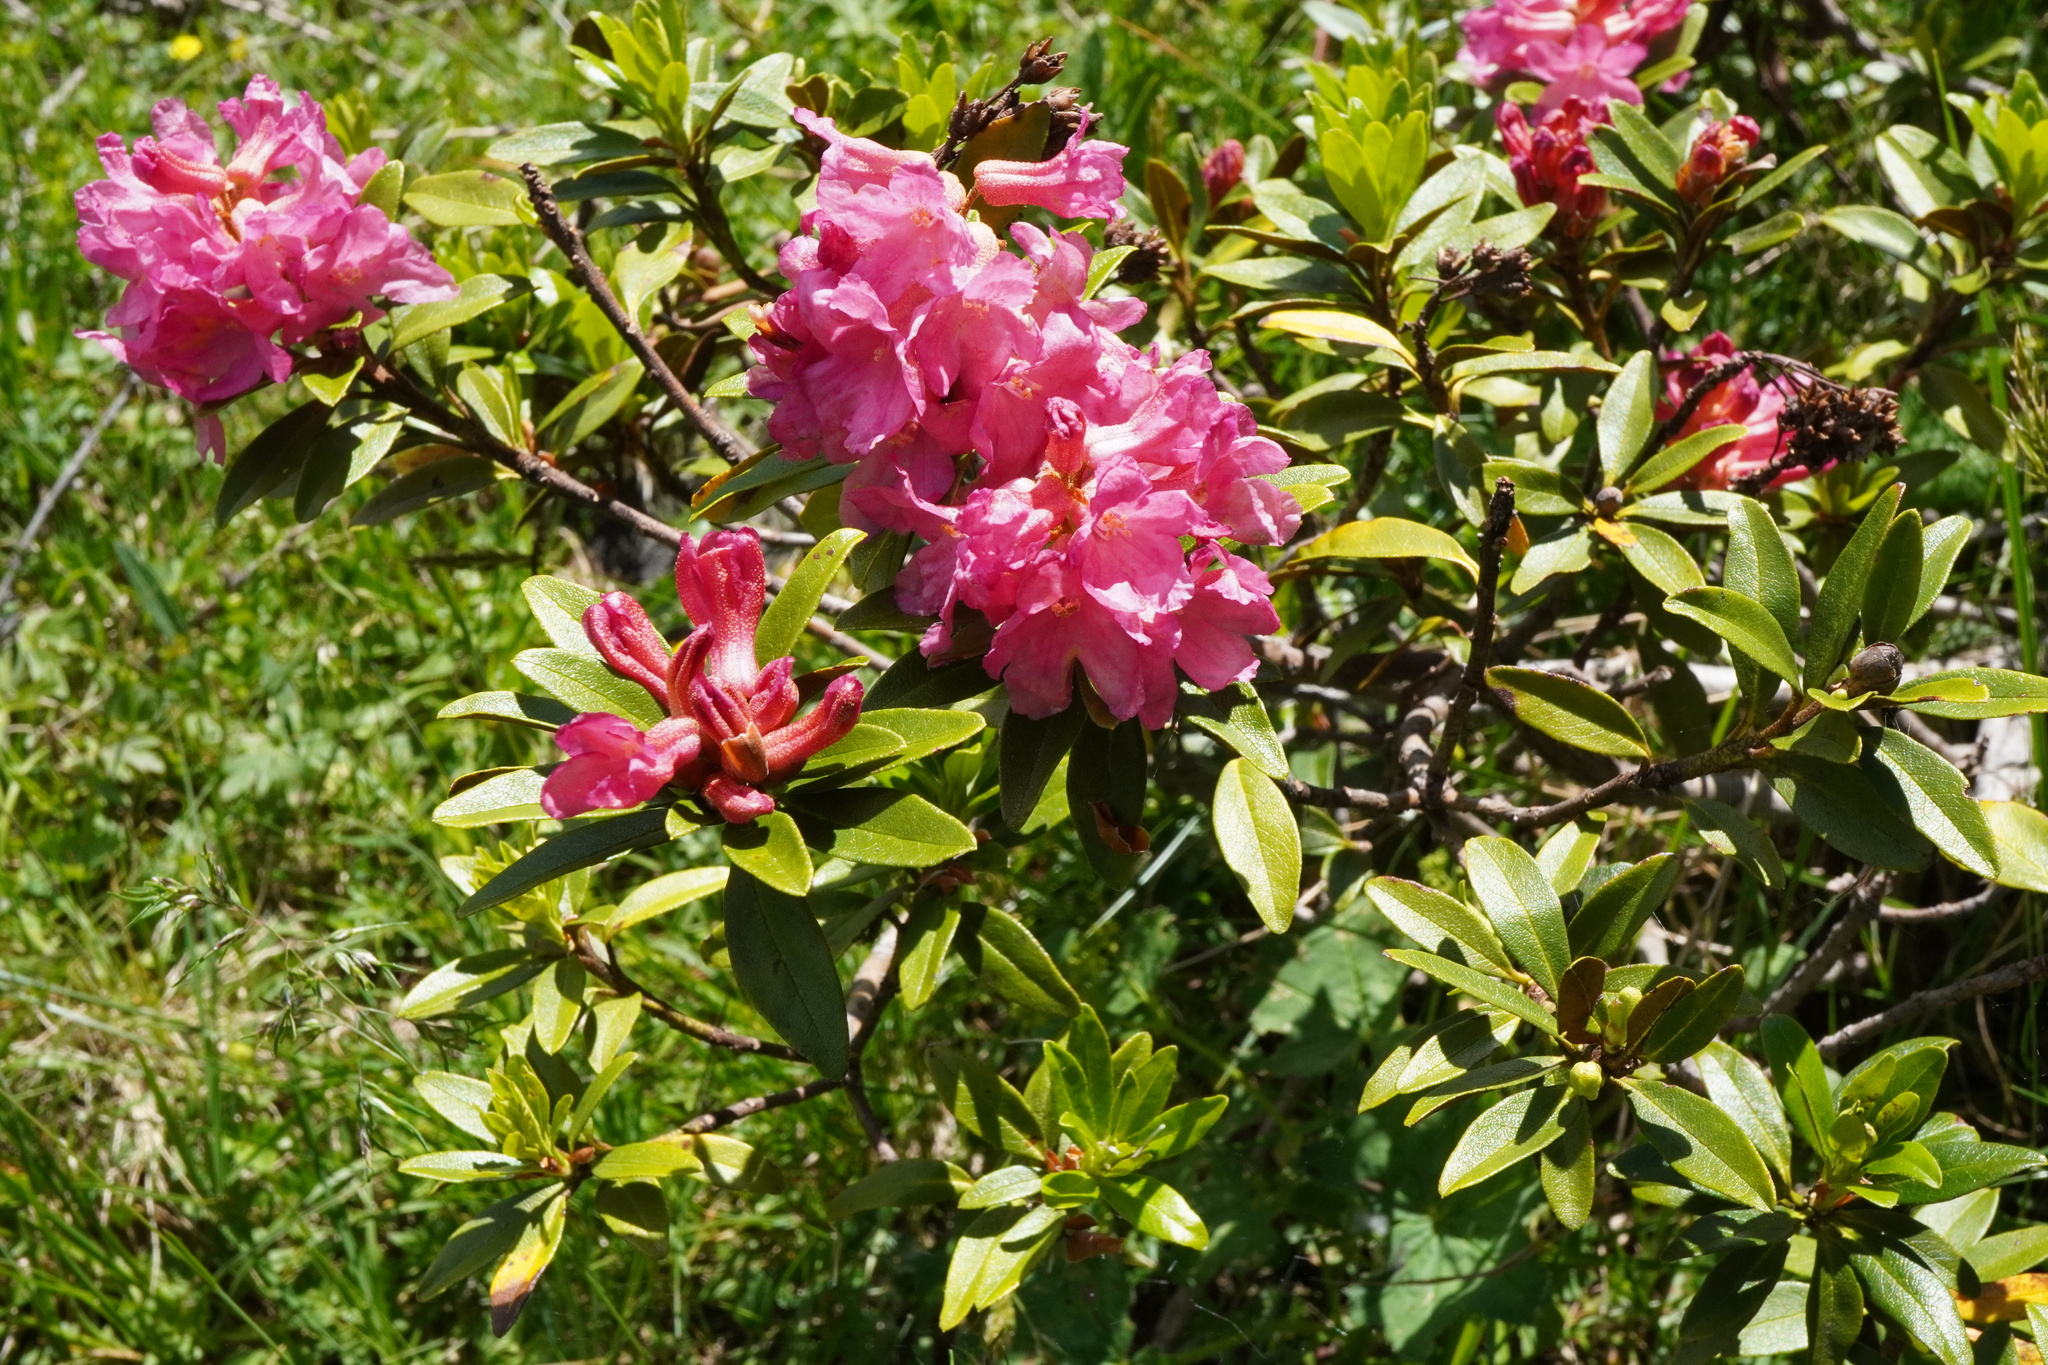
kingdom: Plantae
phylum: Tracheophyta
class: Magnoliopsida
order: Ericales
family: Ericaceae
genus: Rhododendron
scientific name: Rhododendron ferrugineum
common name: Alpenrose
